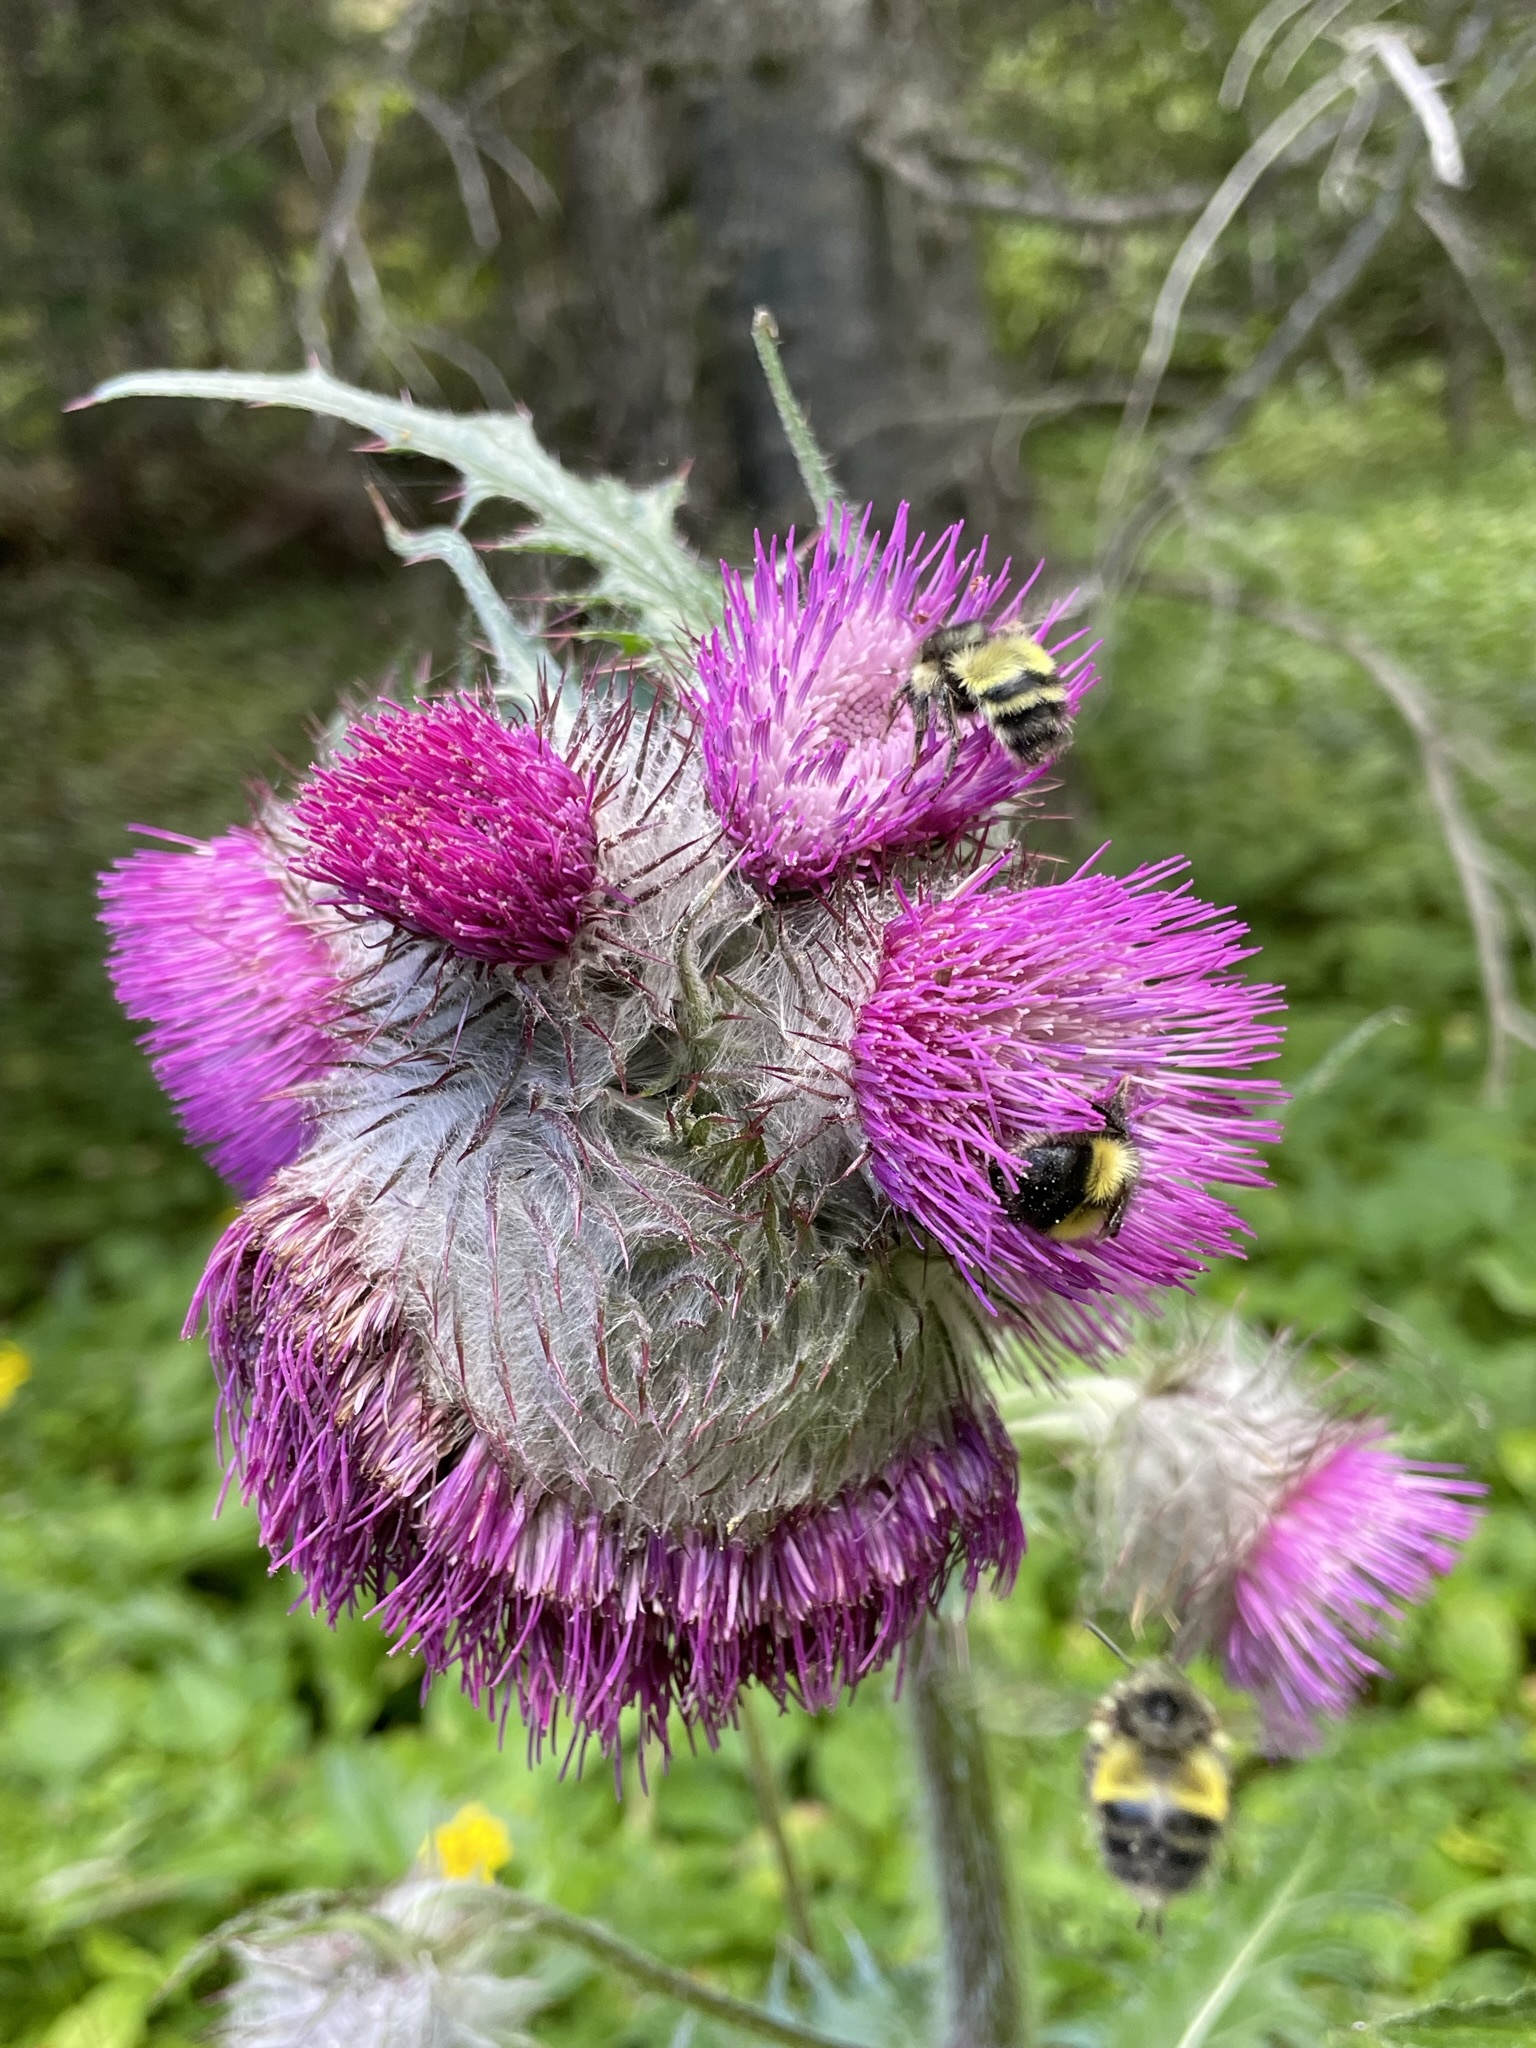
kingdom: Plantae
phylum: Tracheophyta
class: Magnoliopsida
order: Asterales
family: Asteraceae
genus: Cirsium
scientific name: Cirsium edule
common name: Indian thistle
